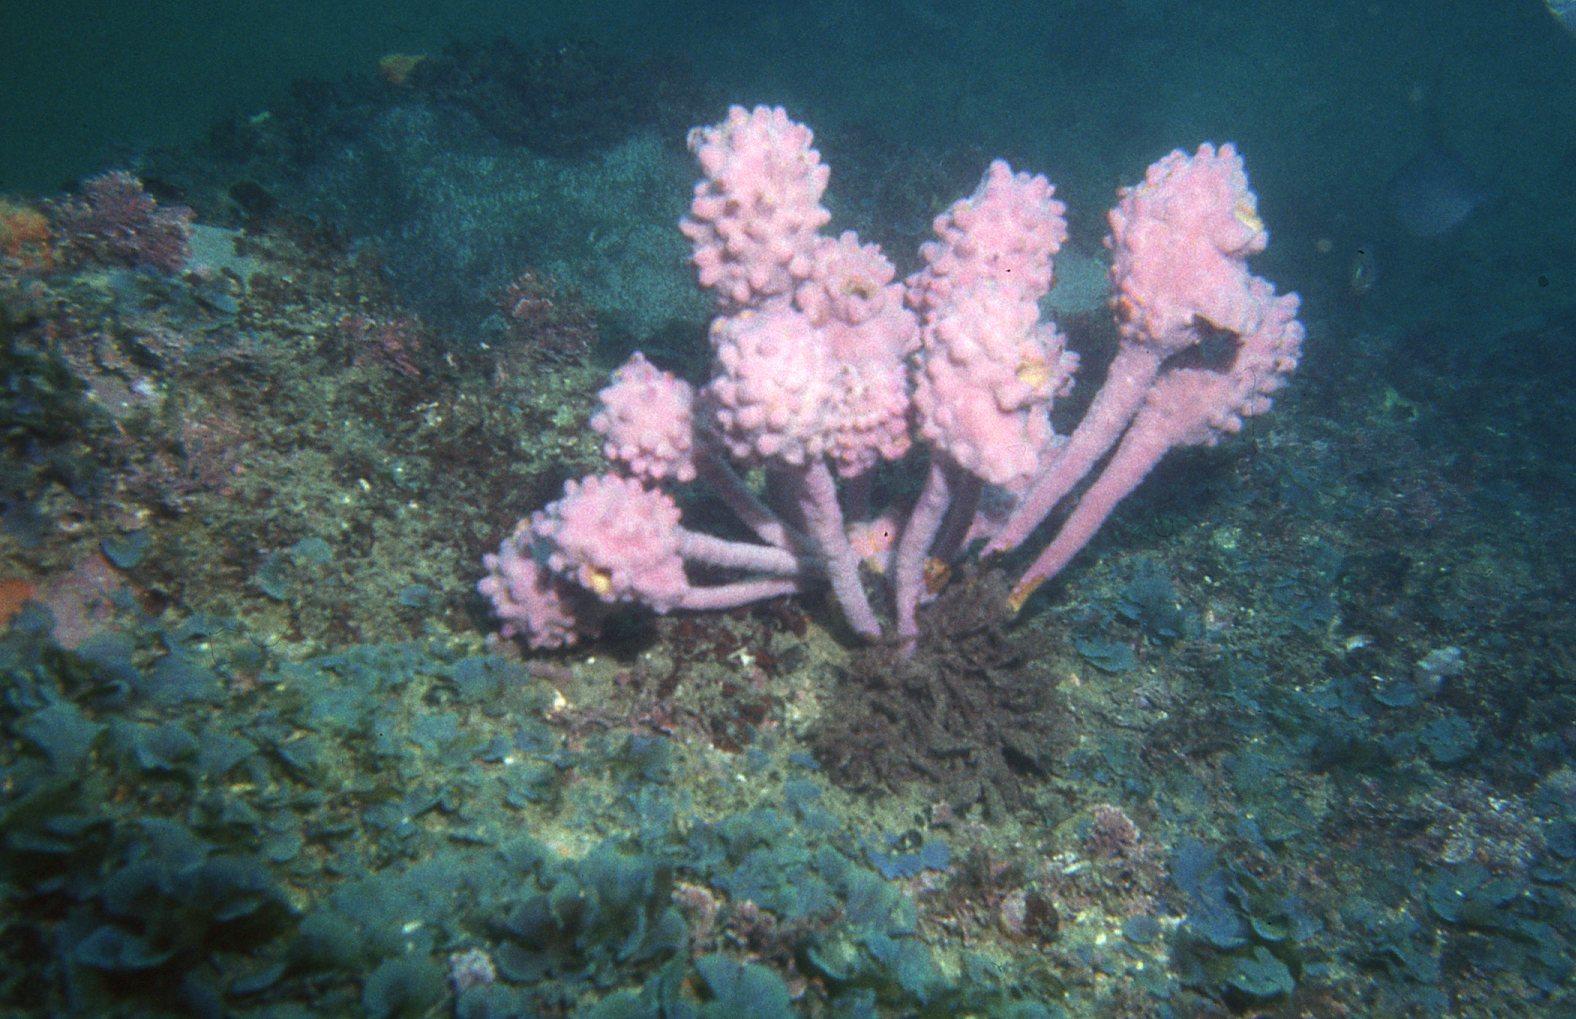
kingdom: Animalia
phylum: Chordata
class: Ascidiacea
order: Stolidobranchia
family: Pyuridae
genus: Pyura
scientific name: Pyura spinifera
